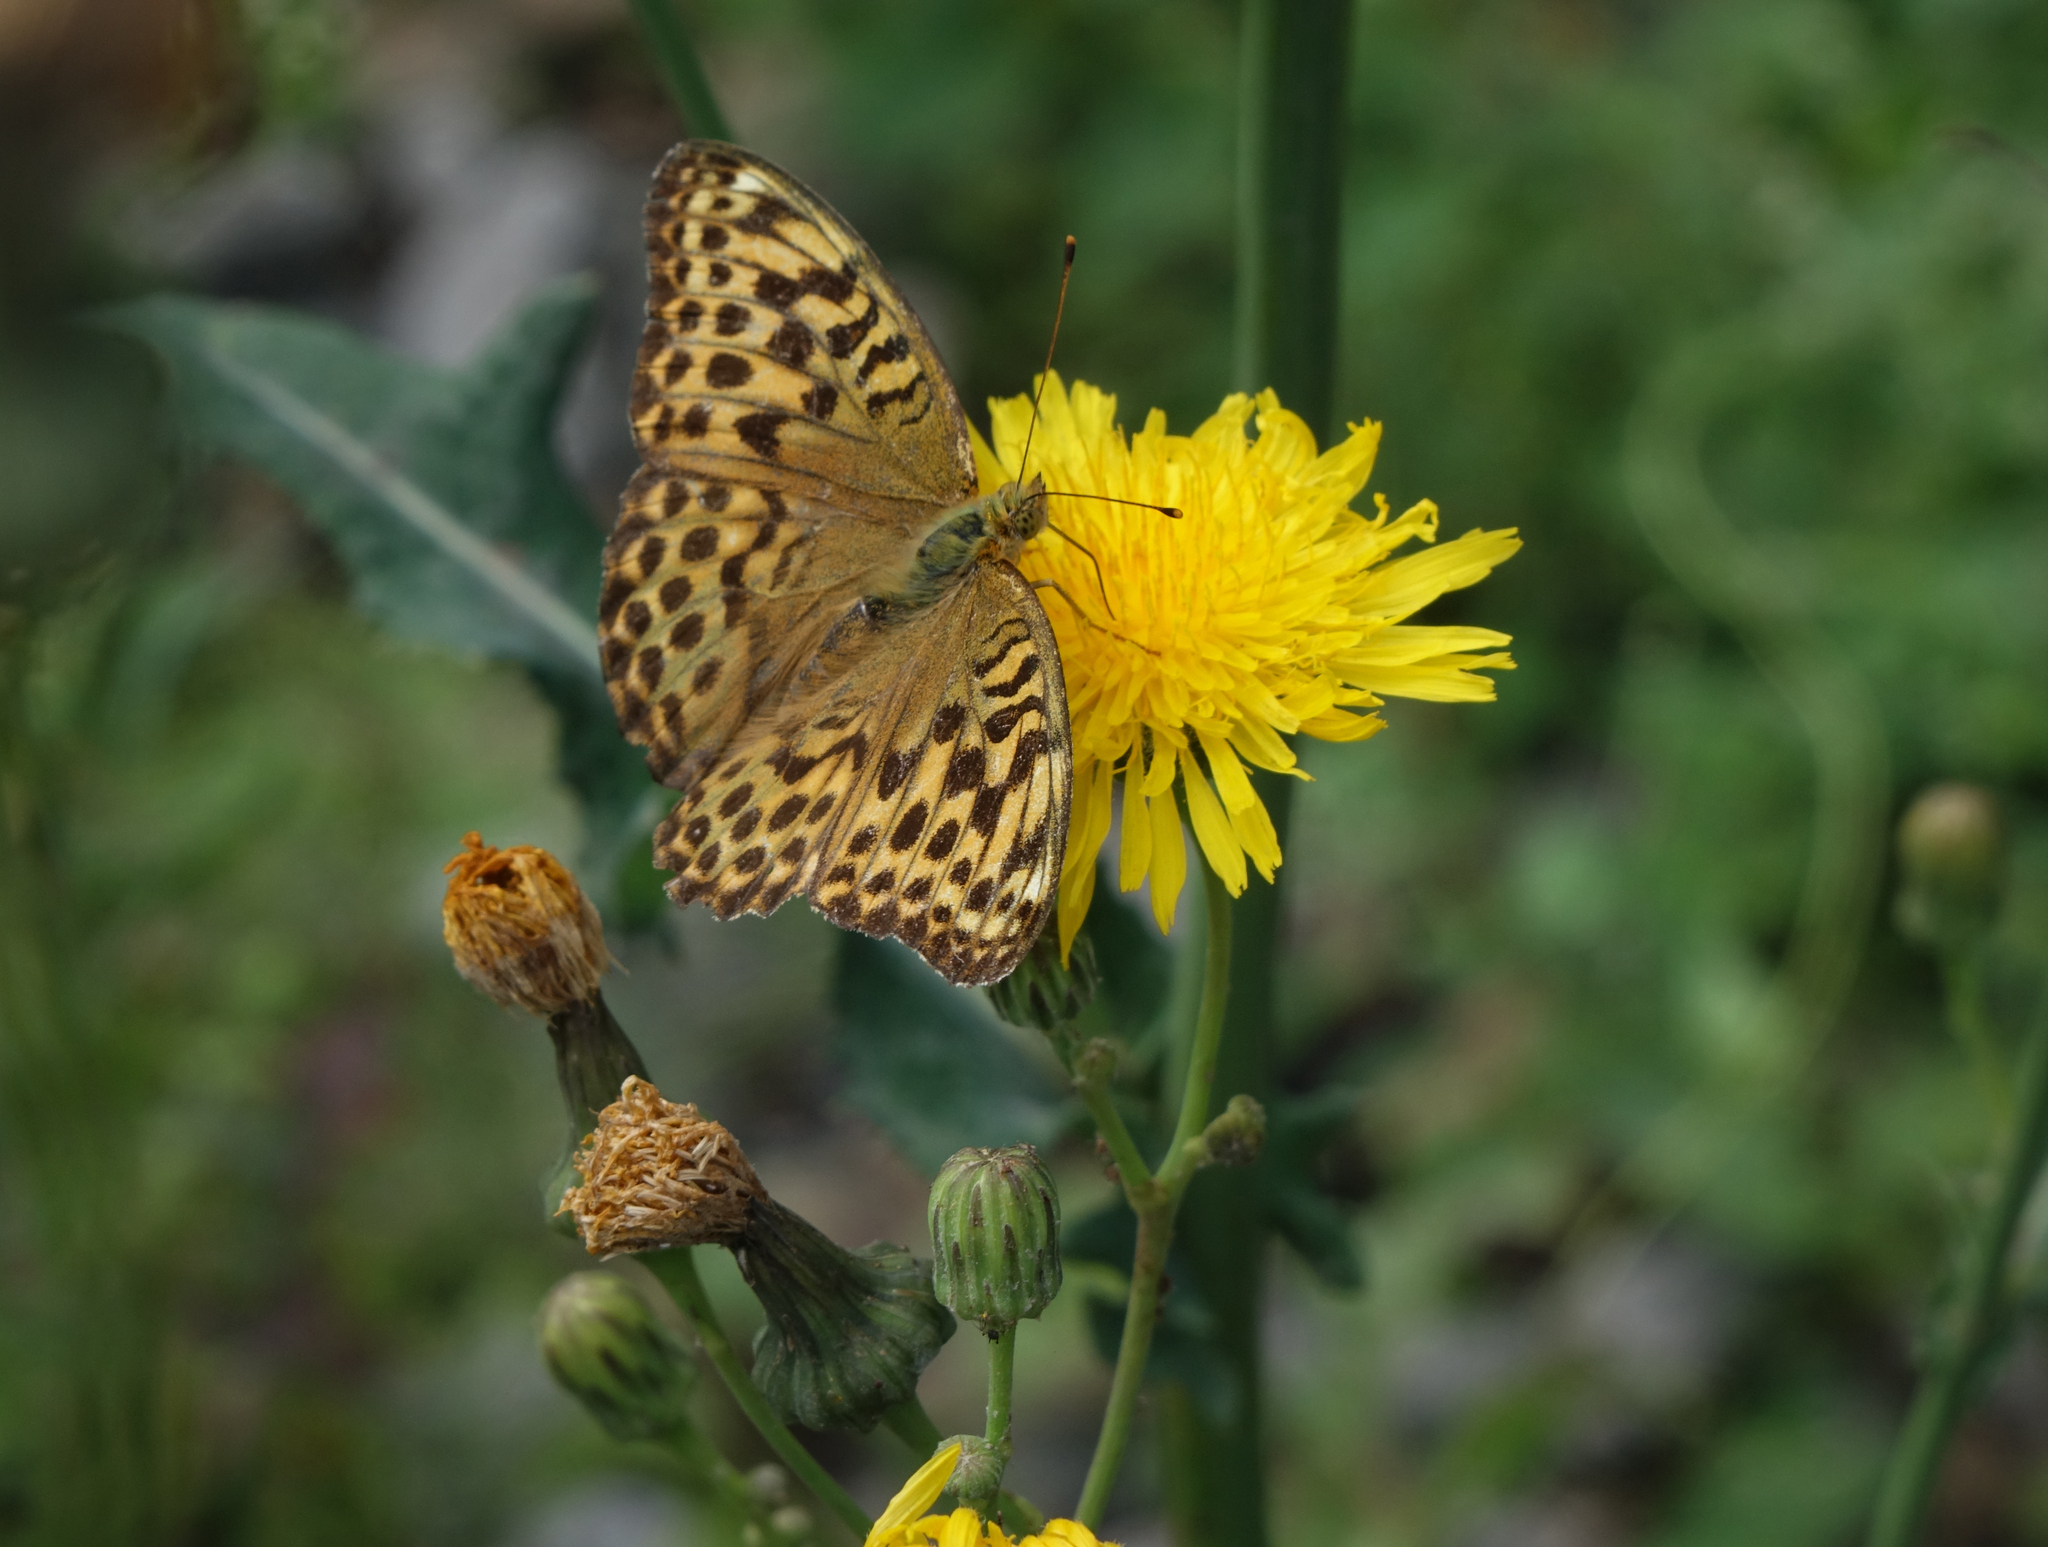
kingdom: Animalia
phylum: Arthropoda
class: Insecta
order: Lepidoptera
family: Nymphalidae
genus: Argynnis
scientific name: Argynnis paphia
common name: Silver-washed fritillary
